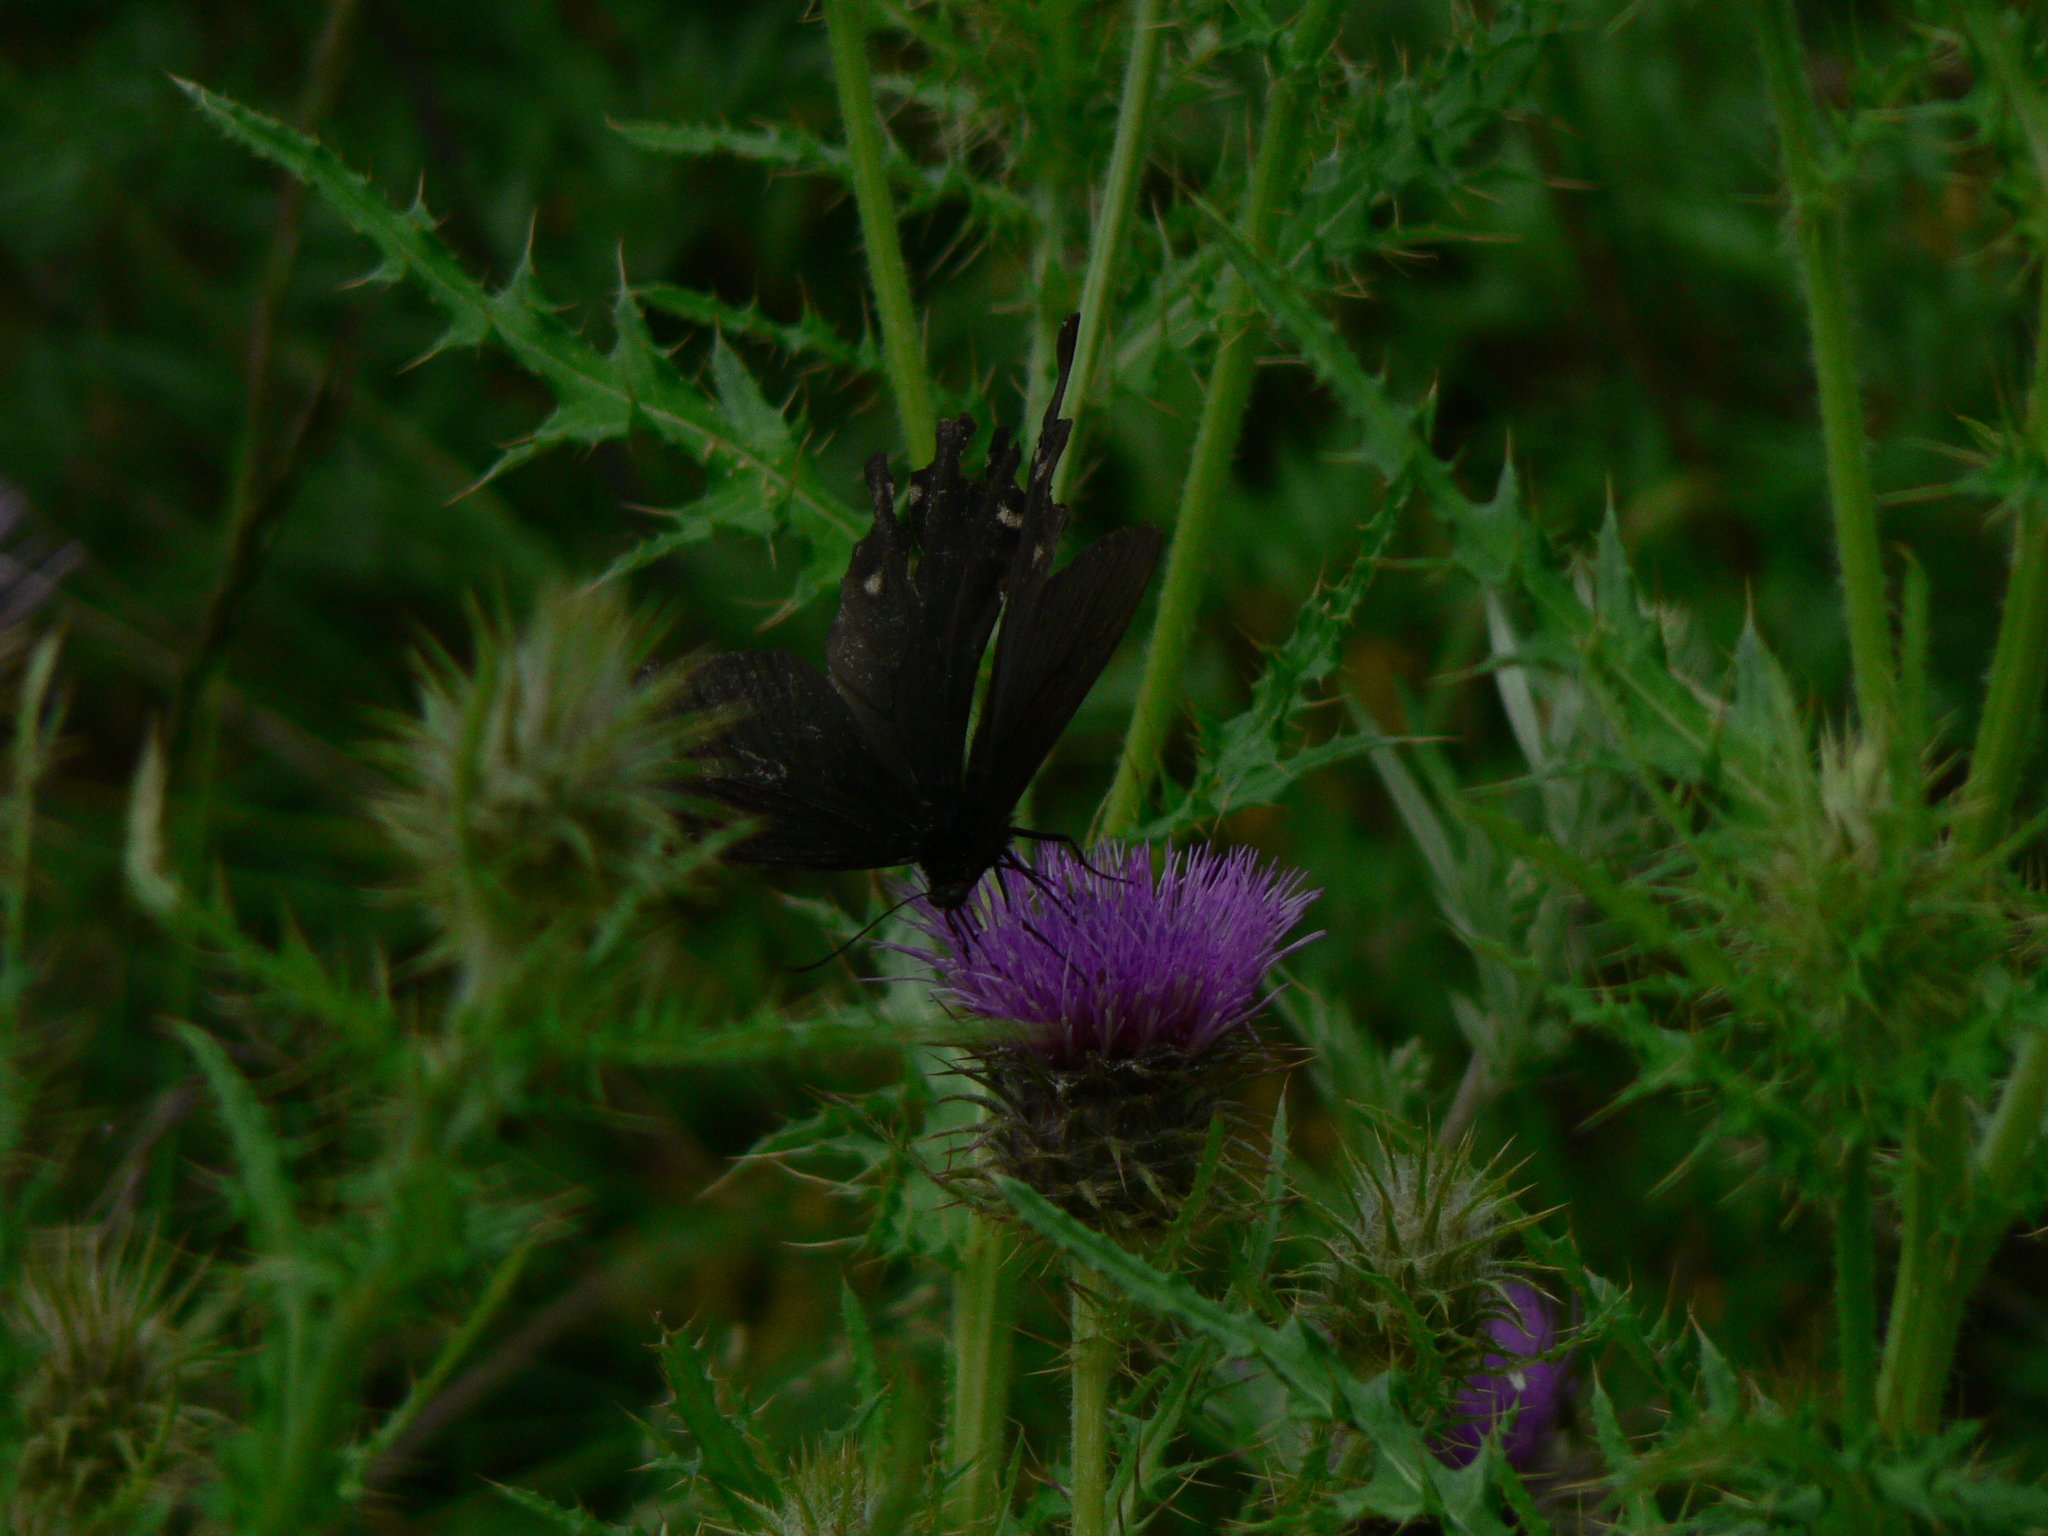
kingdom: Animalia
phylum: Arthropoda
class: Insecta
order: Lepidoptera
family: Papilionidae
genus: Byasa
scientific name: Byasa polyeuctes
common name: Common windmill
